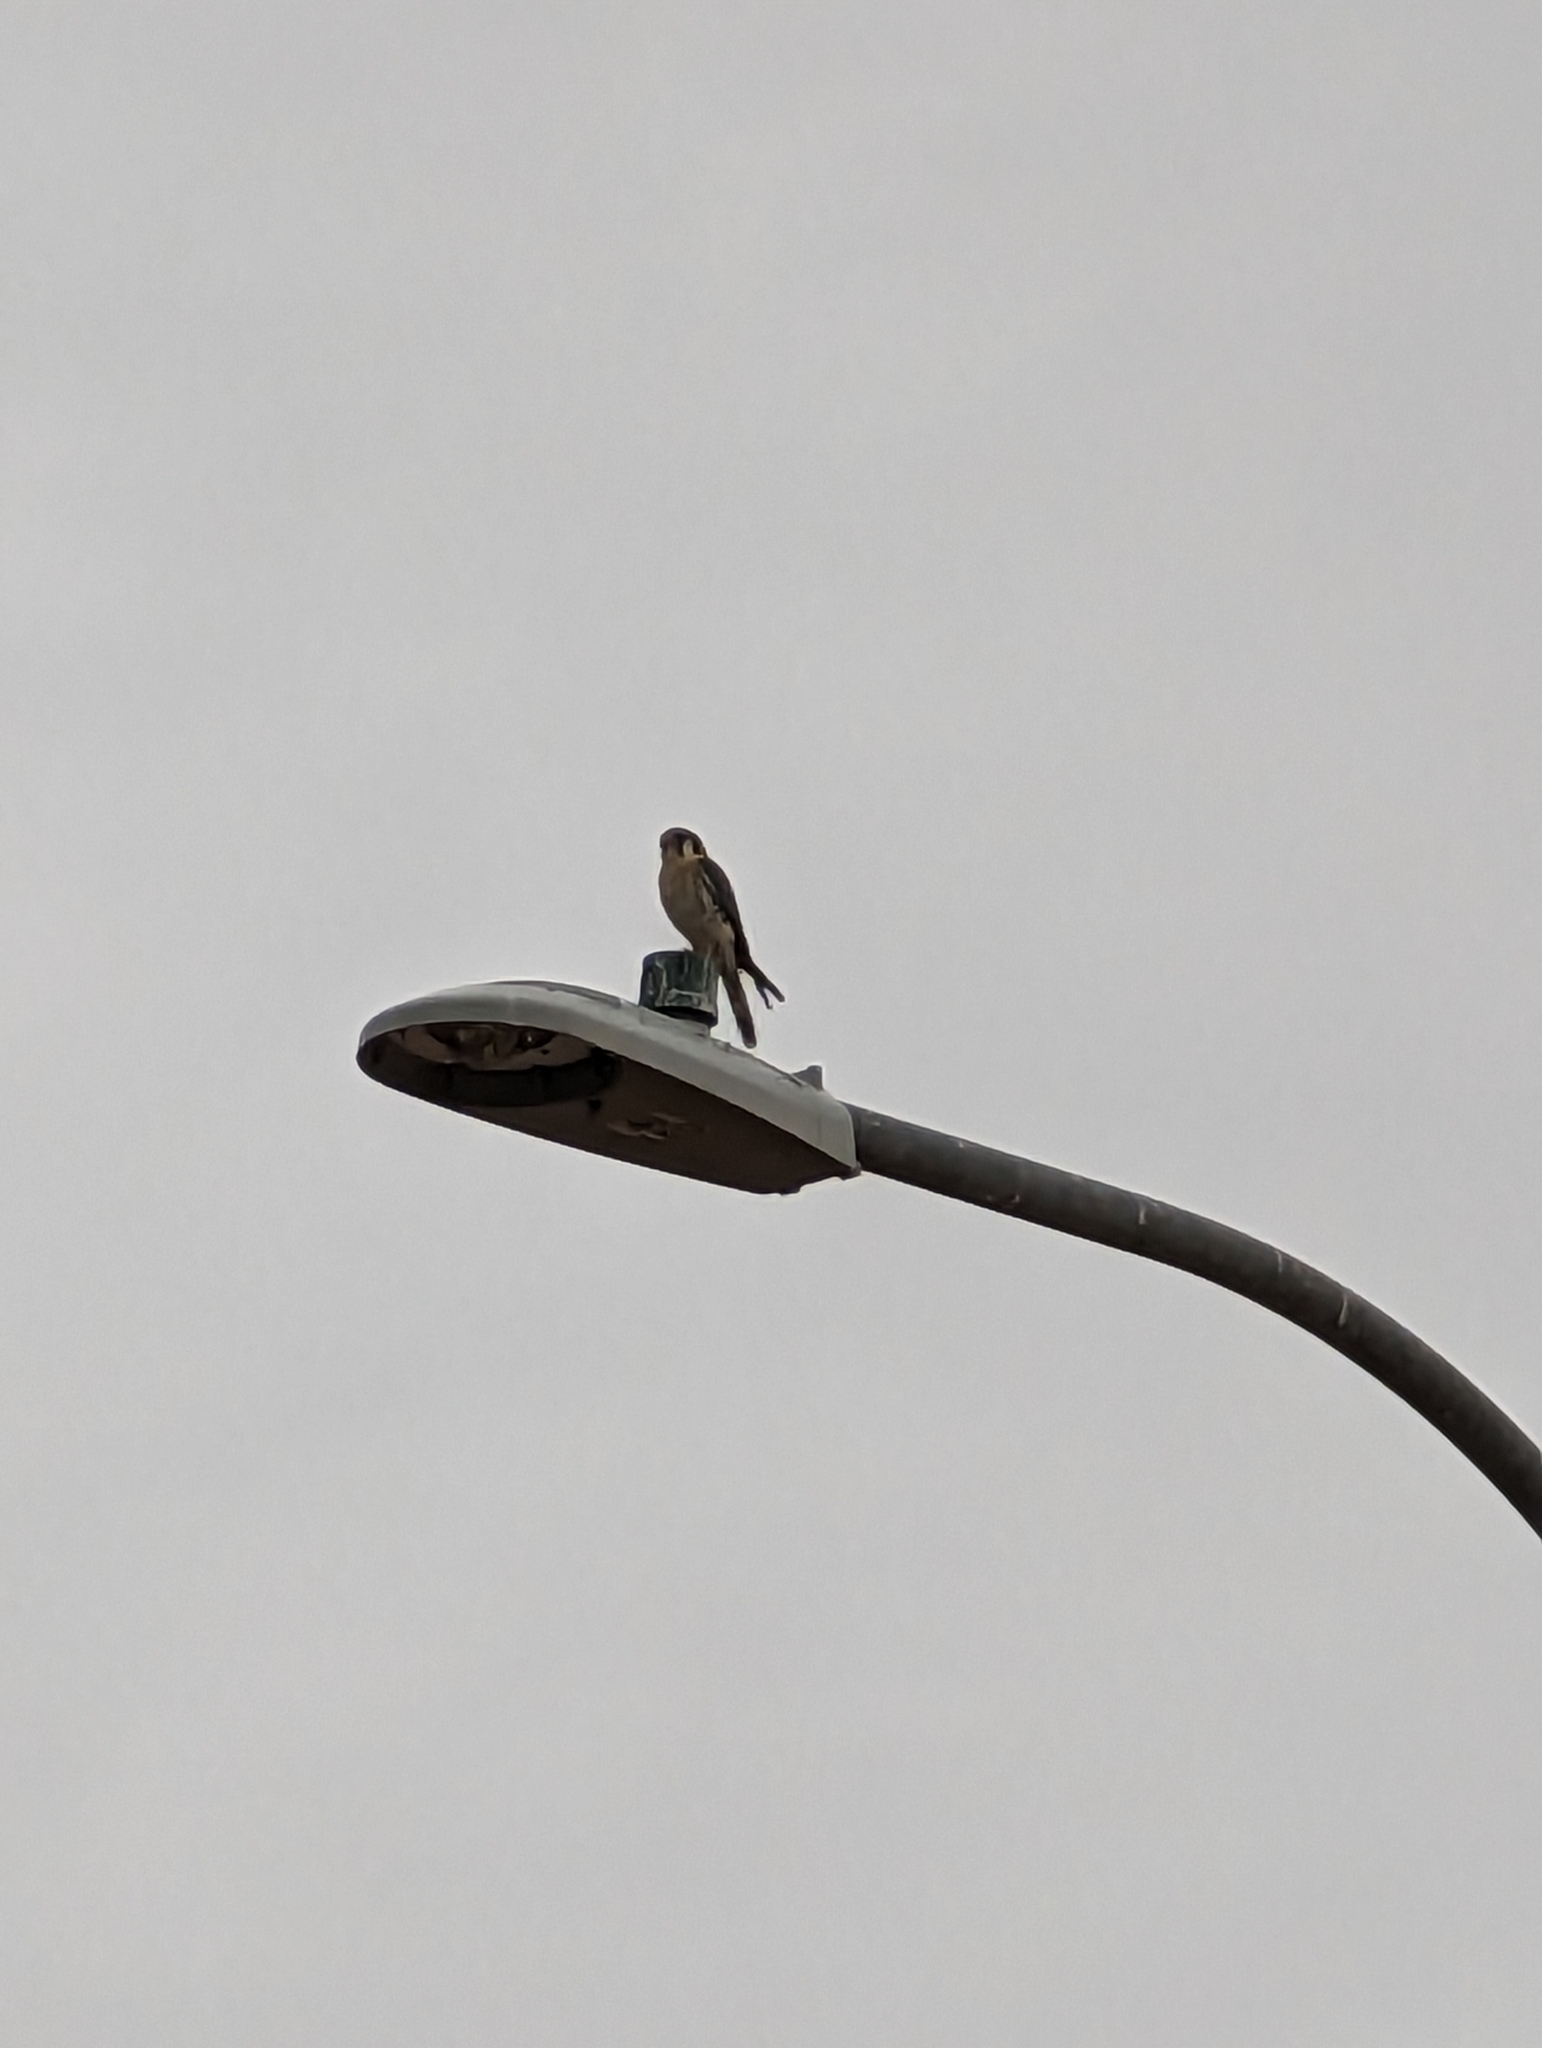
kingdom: Animalia
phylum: Chordata
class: Aves
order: Falconiformes
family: Falconidae
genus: Falco
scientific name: Falco sparverius
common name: American kestrel
